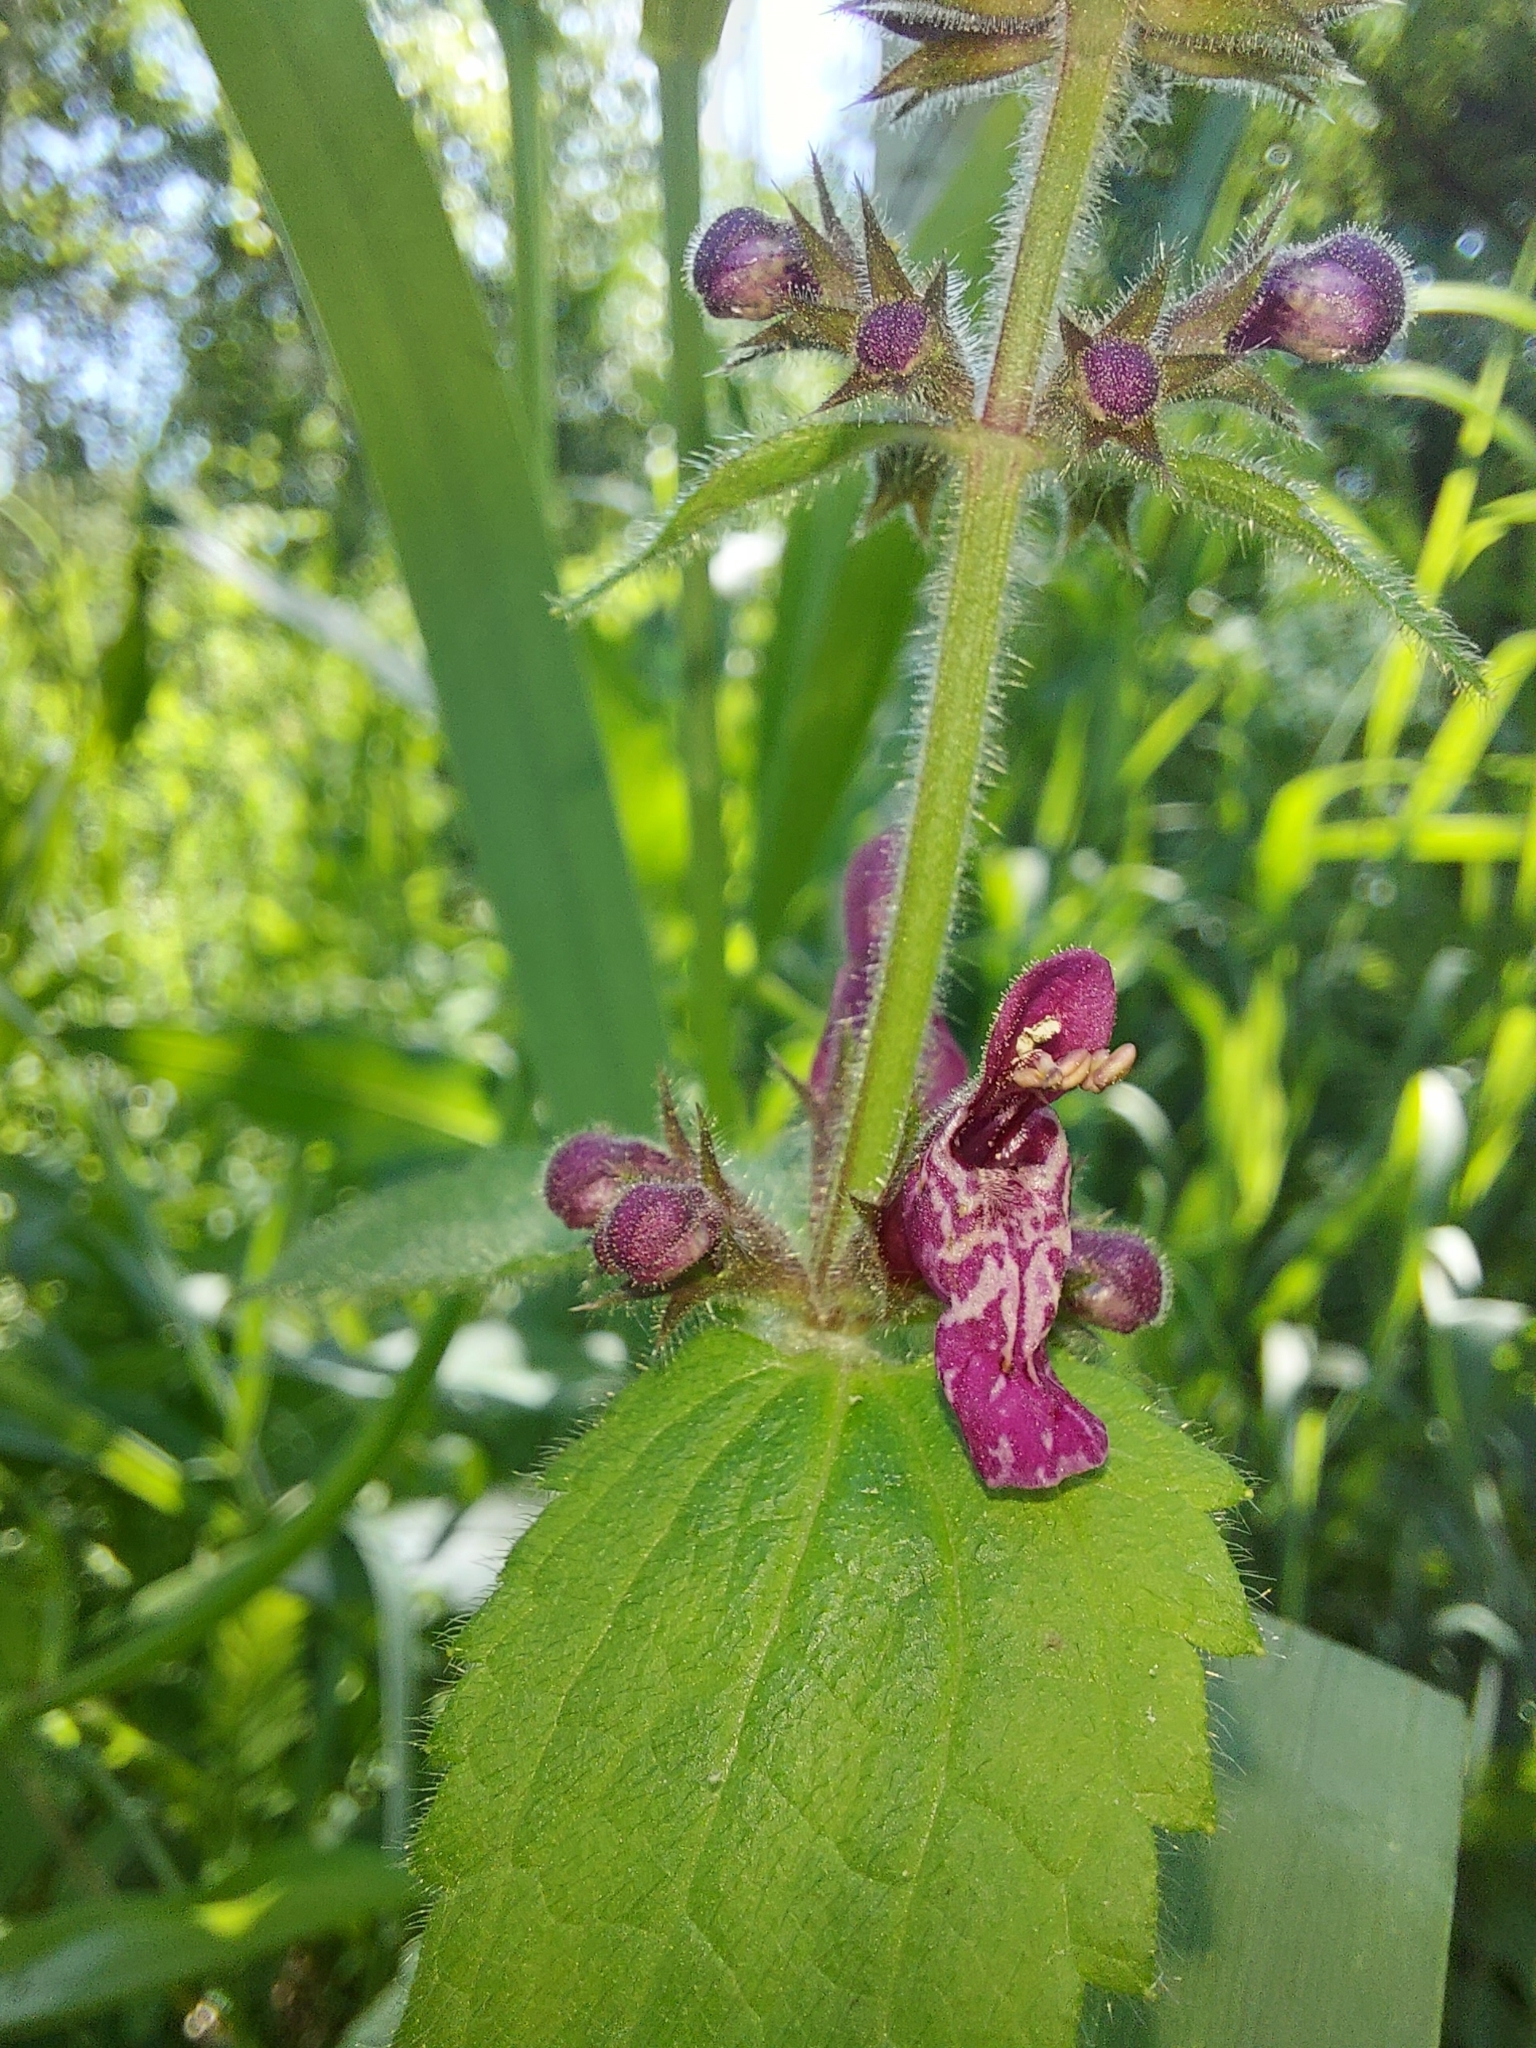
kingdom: Plantae
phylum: Tracheophyta
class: Magnoliopsida
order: Lamiales
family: Lamiaceae
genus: Stachys
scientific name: Stachys sylvatica
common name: Hedge woundwort
